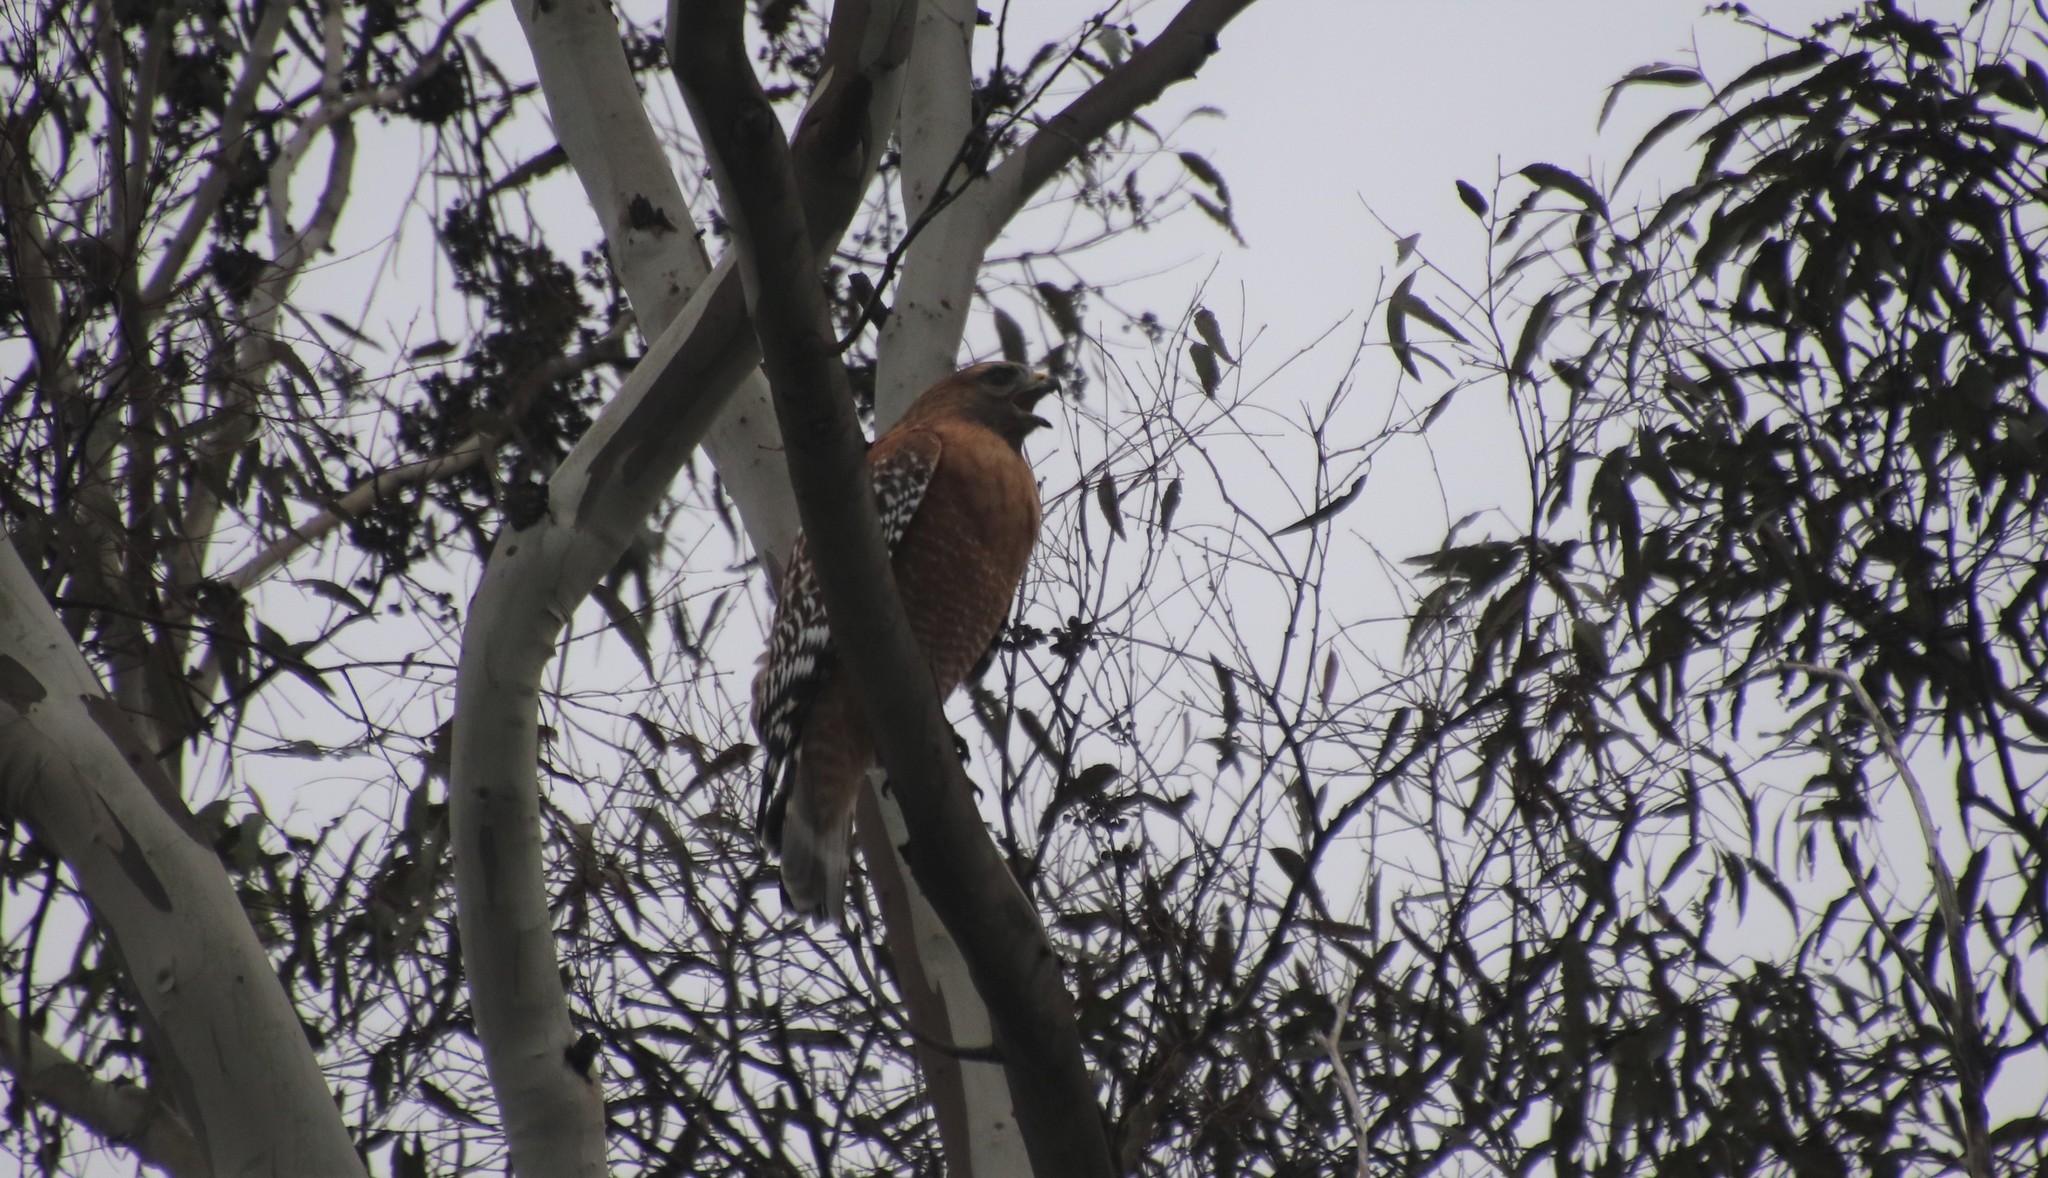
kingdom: Animalia
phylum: Chordata
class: Aves
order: Accipitriformes
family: Accipitridae
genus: Buteo
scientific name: Buteo lineatus
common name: Red-shouldered hawk
